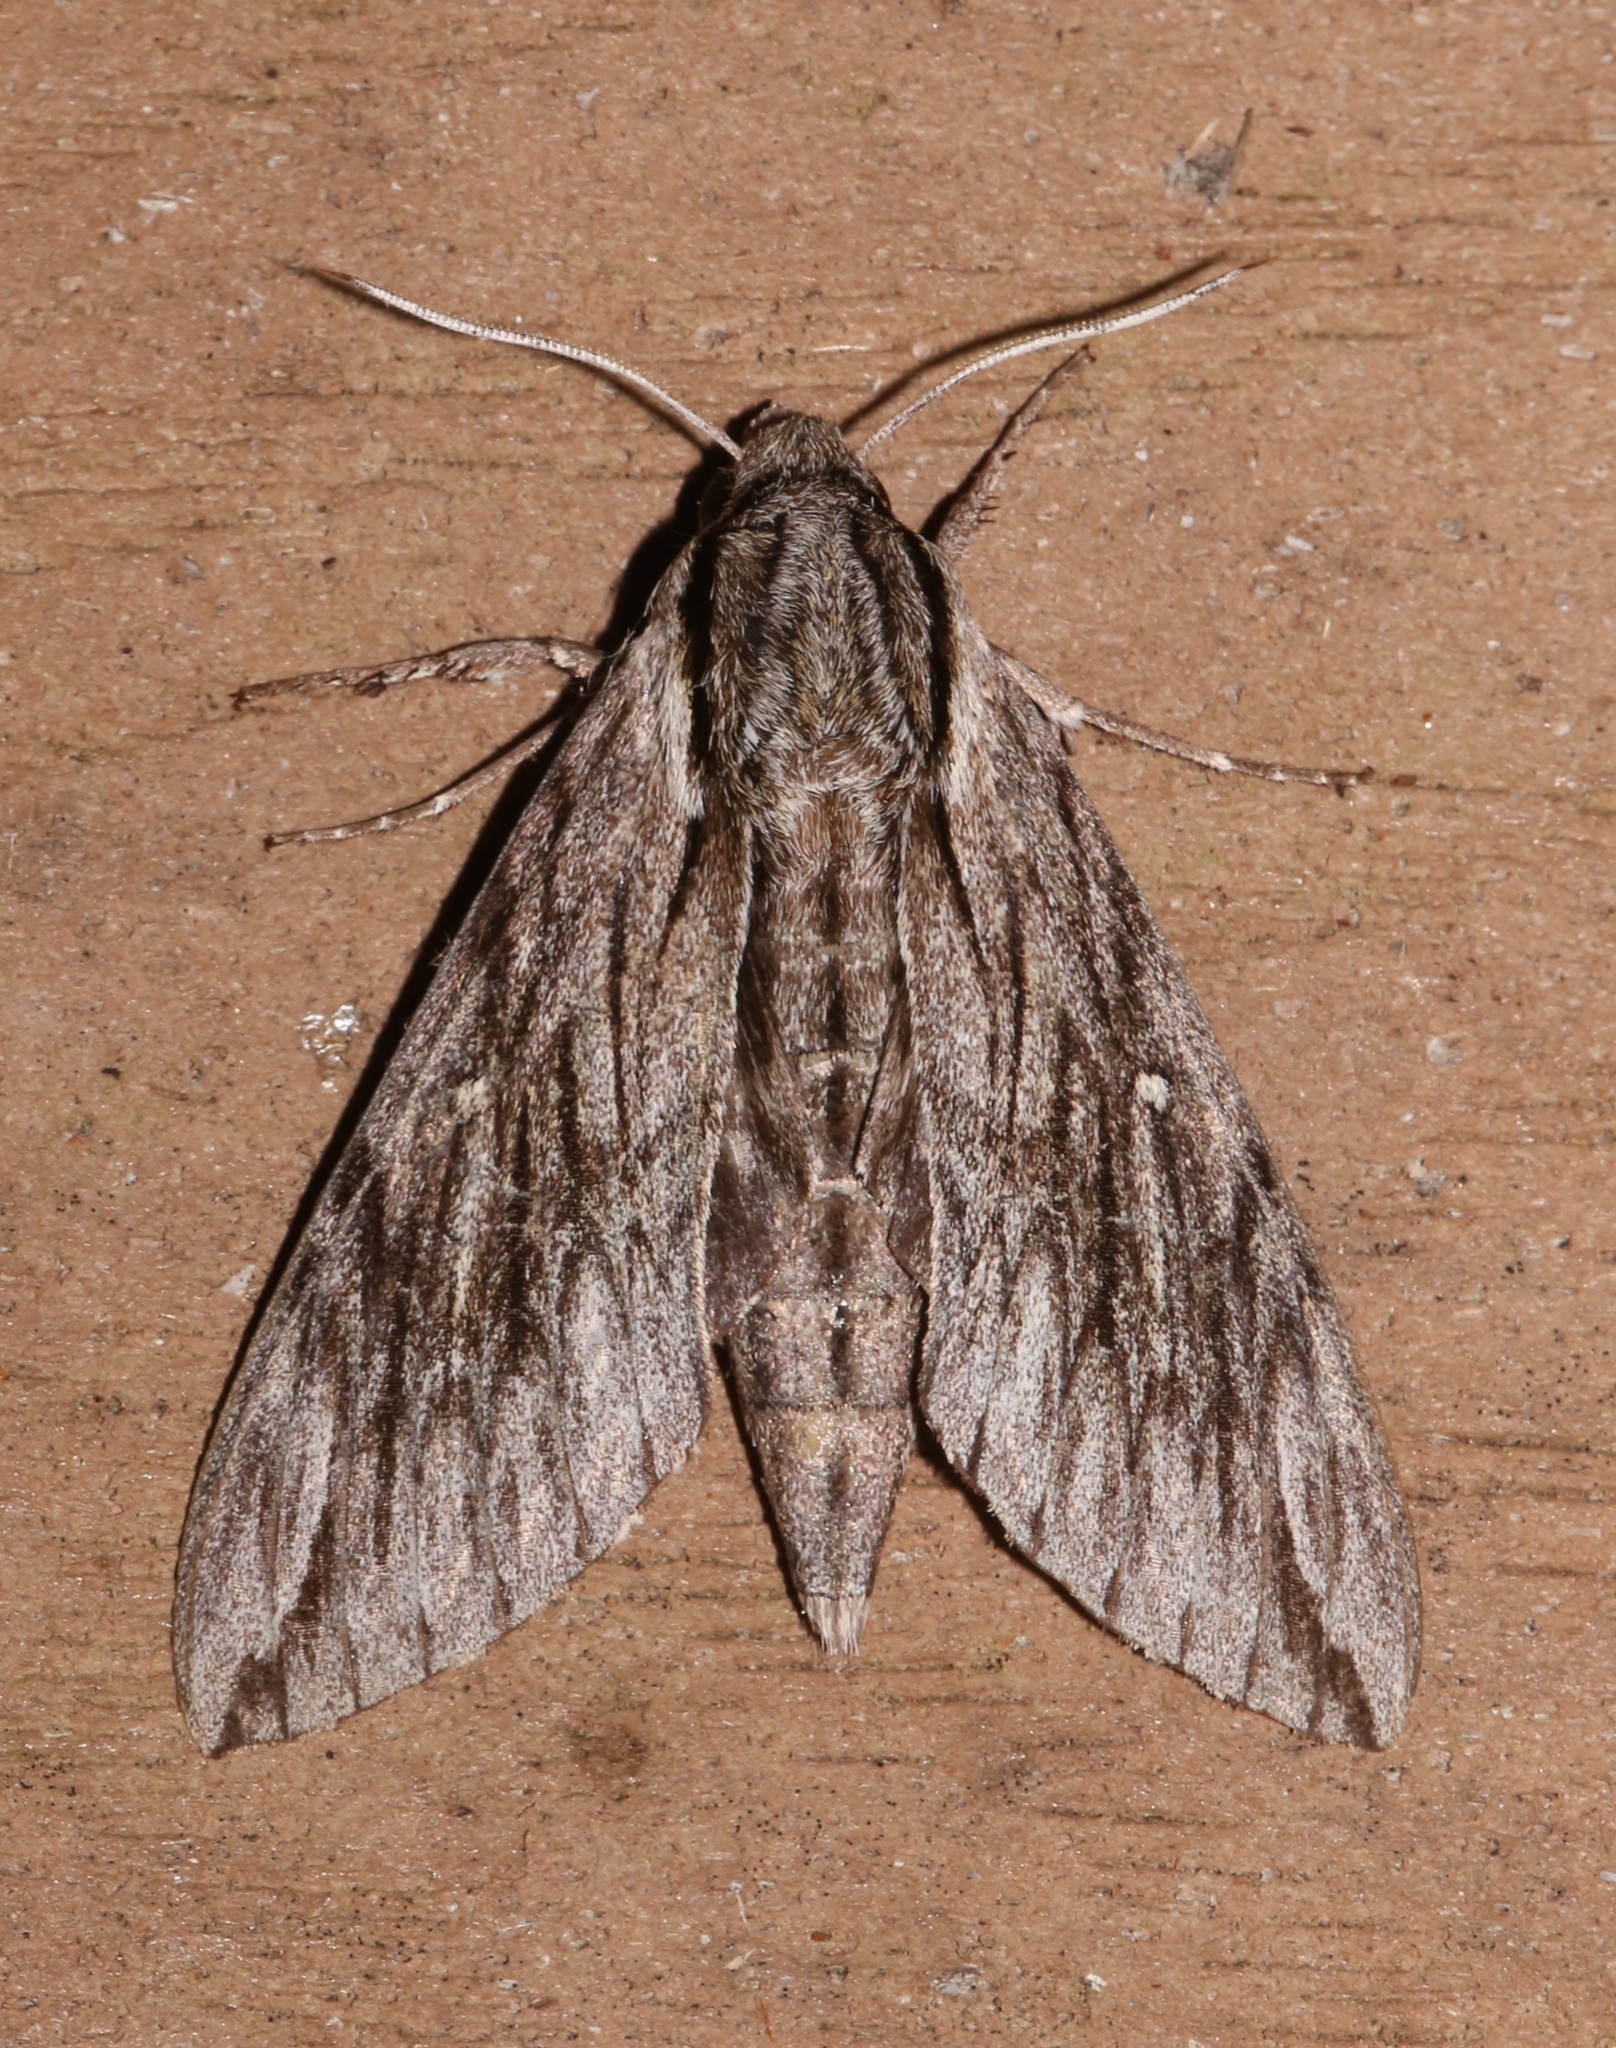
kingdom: Animalia
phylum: Arthropoda
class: Insecta
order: Lepidoptera
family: Sphingidae
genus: Paratrea
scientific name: Paratrea plebeja
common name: Plebian sphinx
